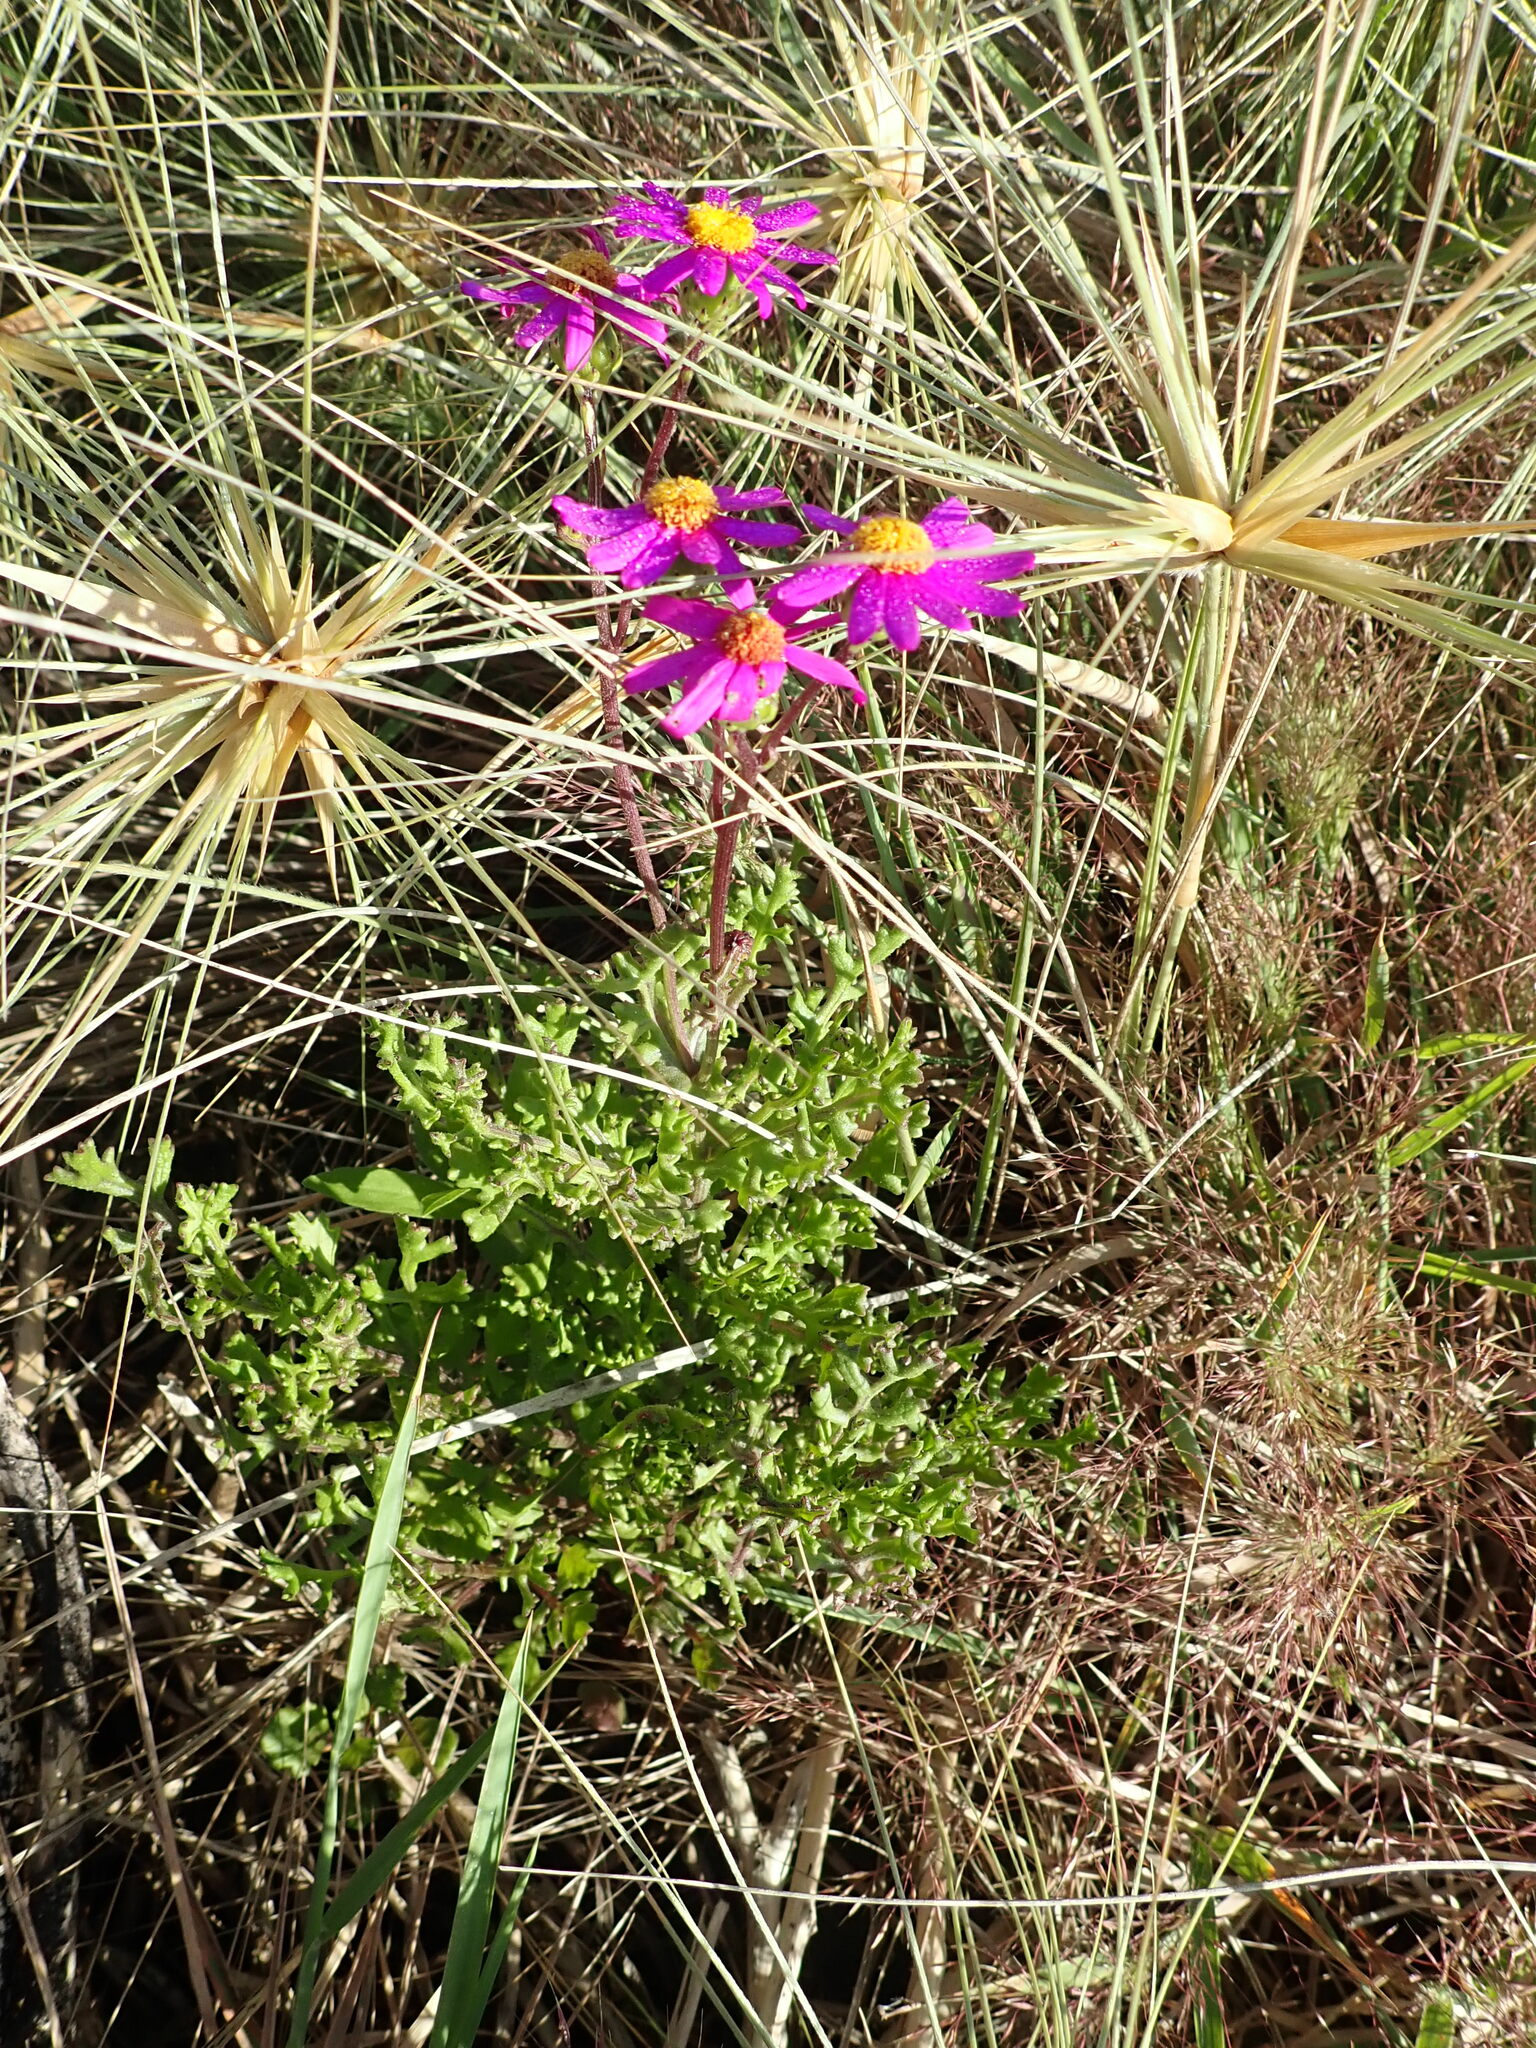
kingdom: Plantae
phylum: Tracheophyta
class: Magnoliopsida
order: Asterales
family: Asteraceae
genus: Senecio
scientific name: Senecio elegans
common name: Purple groundsel
